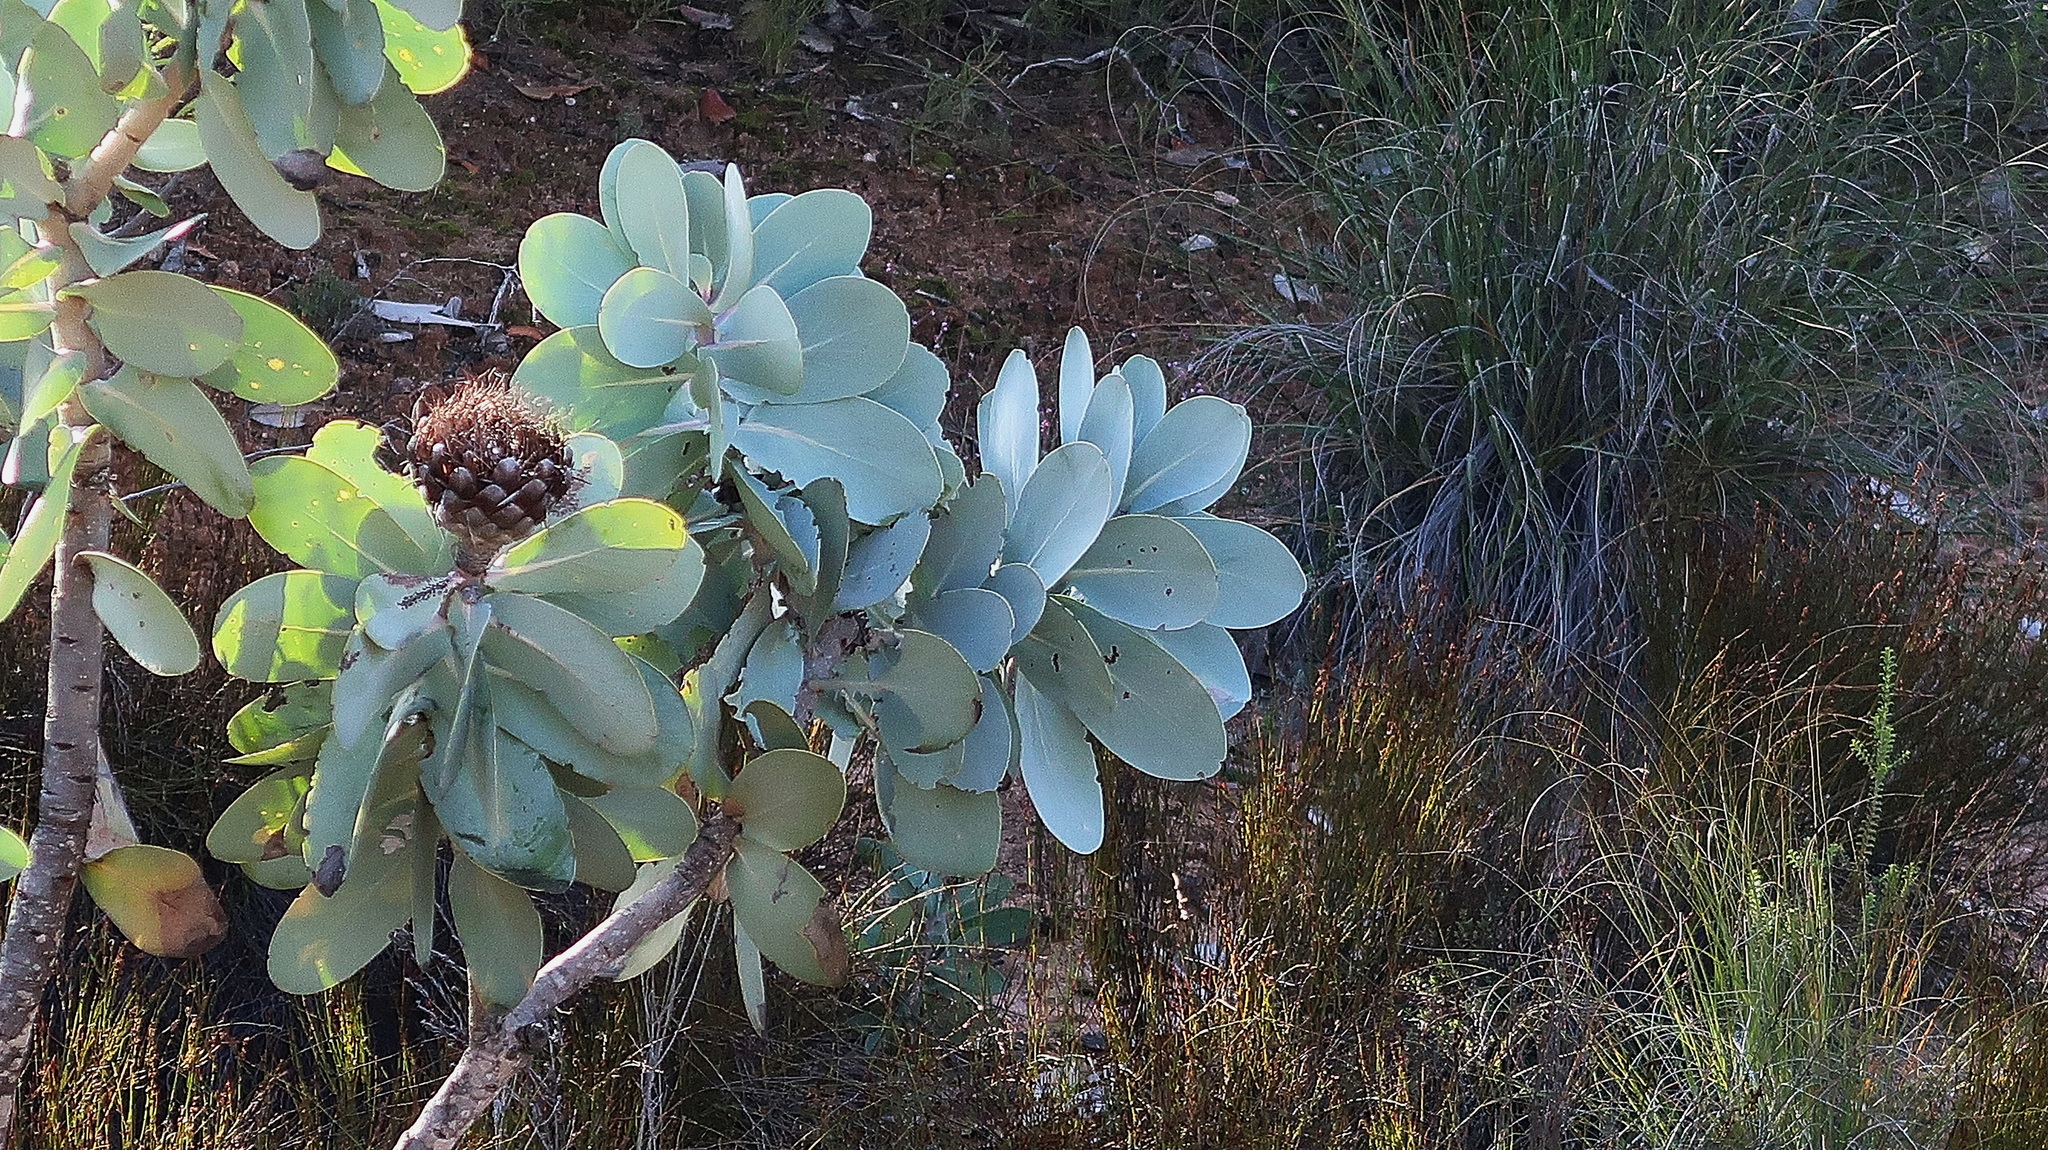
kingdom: Plantae
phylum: Tracheophyta
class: Magnoliopsida
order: Proteales
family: Proteaceae
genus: Protea
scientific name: Protea nitida
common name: Tree protea
